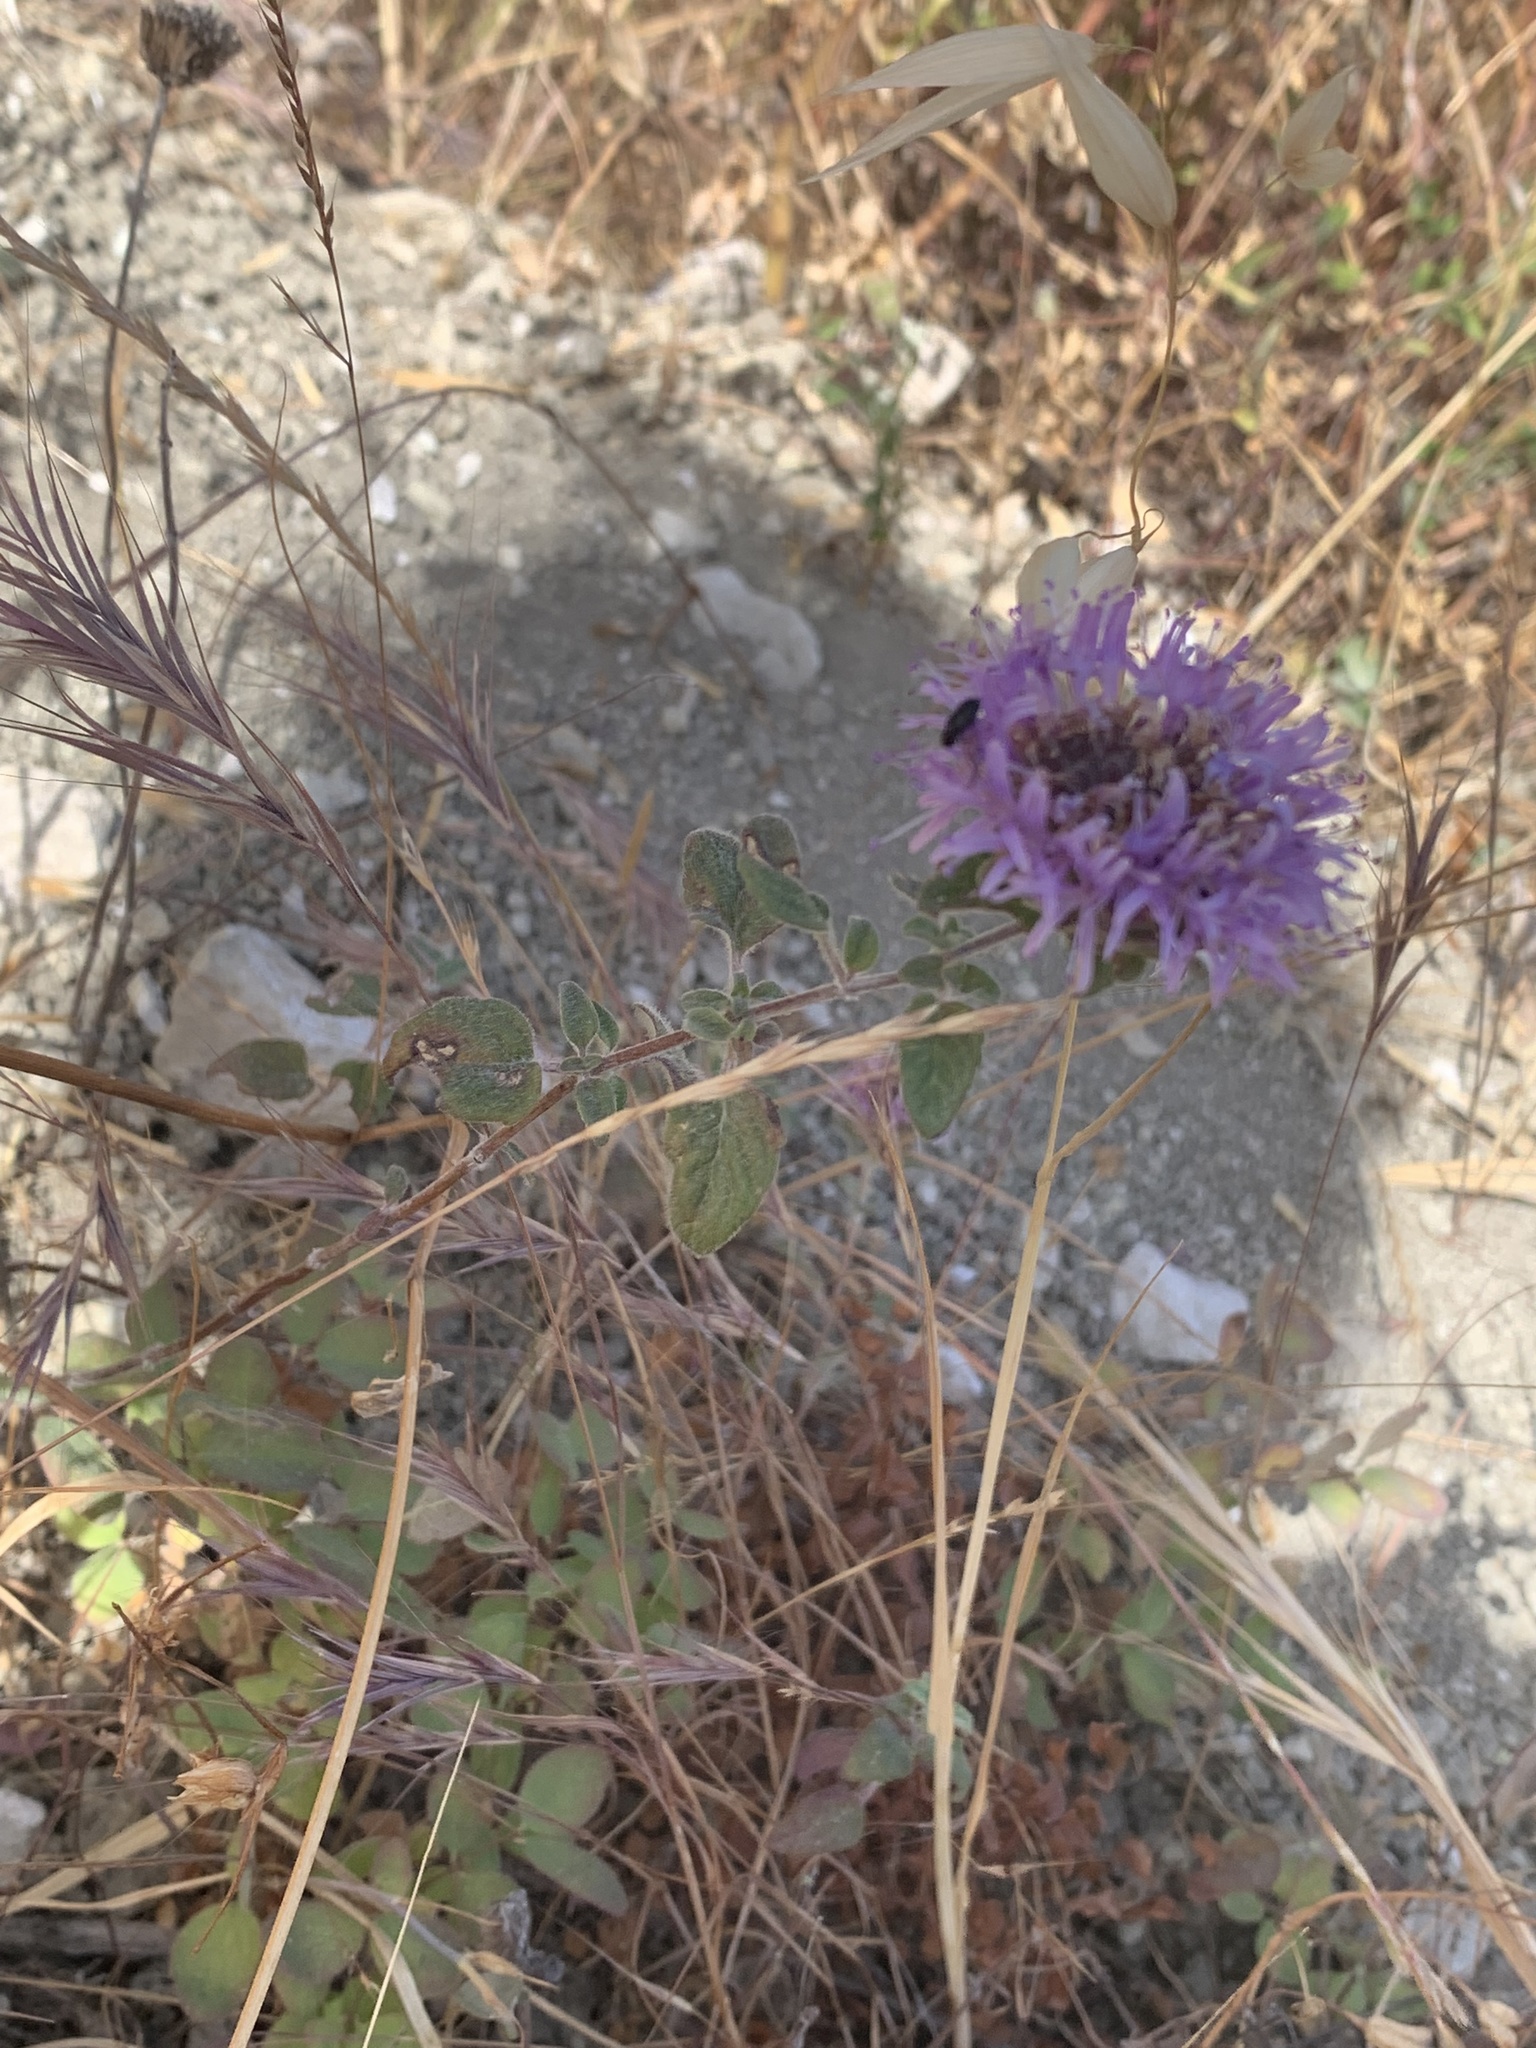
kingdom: Plantae
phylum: Tracheophyta
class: Magnoliopsida
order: Lamiales
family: Lamiaceae
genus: Monardella
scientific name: Monardella odoratissima
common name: Pacific monardella
